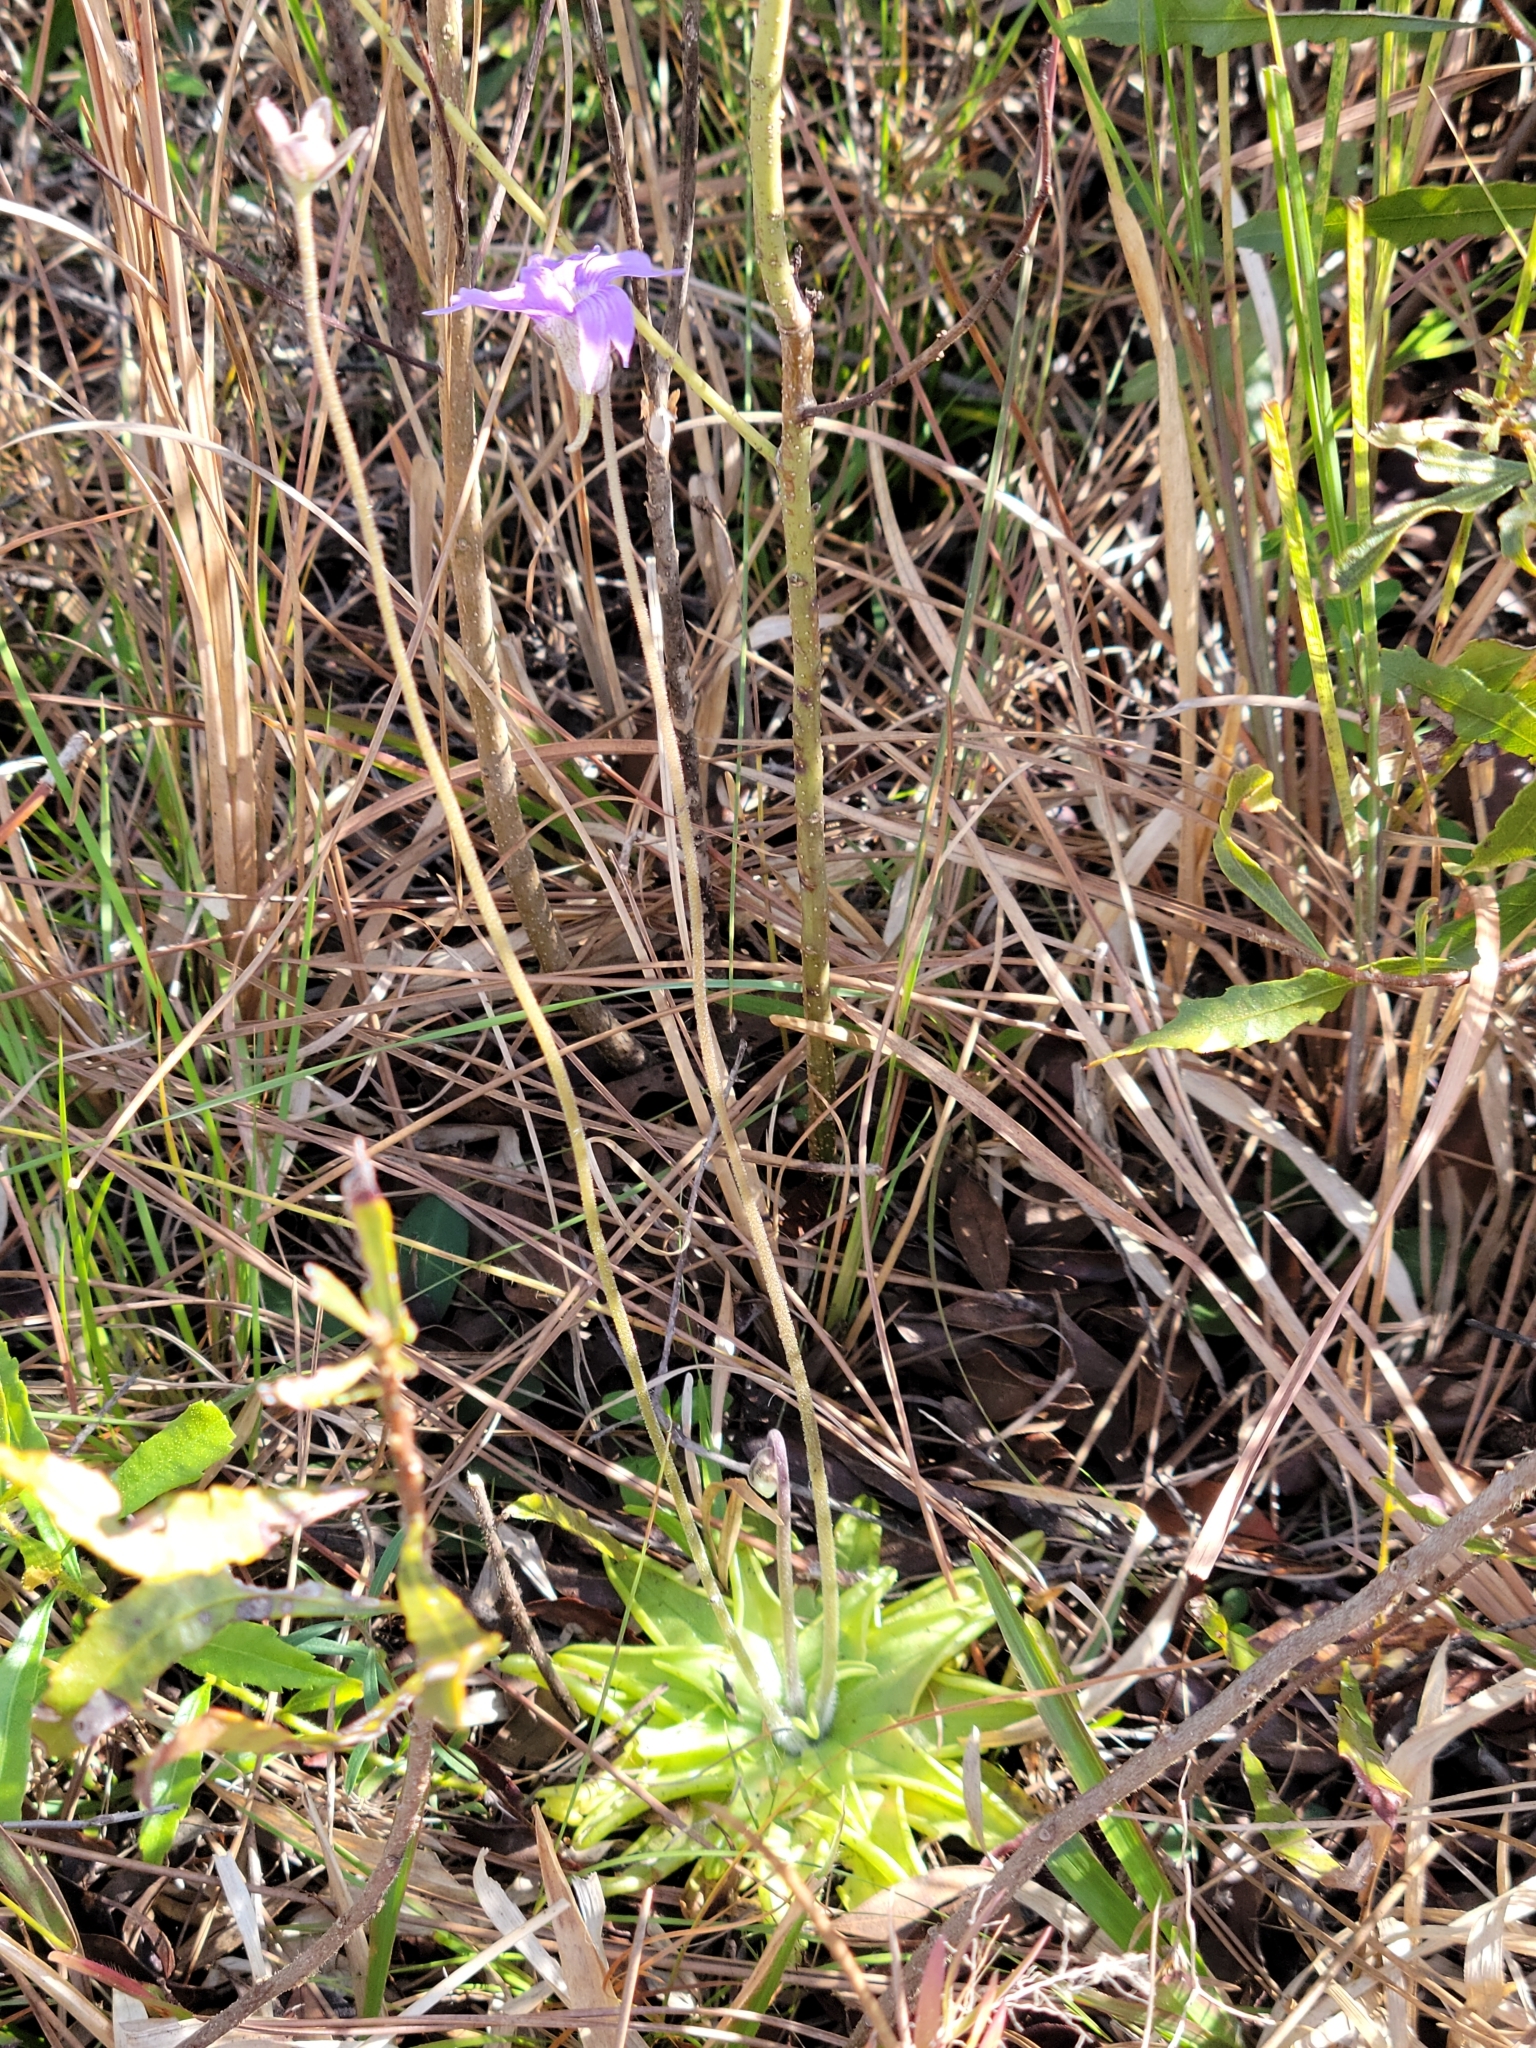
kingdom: Plantae
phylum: Tracheophyta
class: Magnoliopsida
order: Lamiales
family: Lentibulariaceae
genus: Pinguicula
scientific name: Pinguicula caerulea
